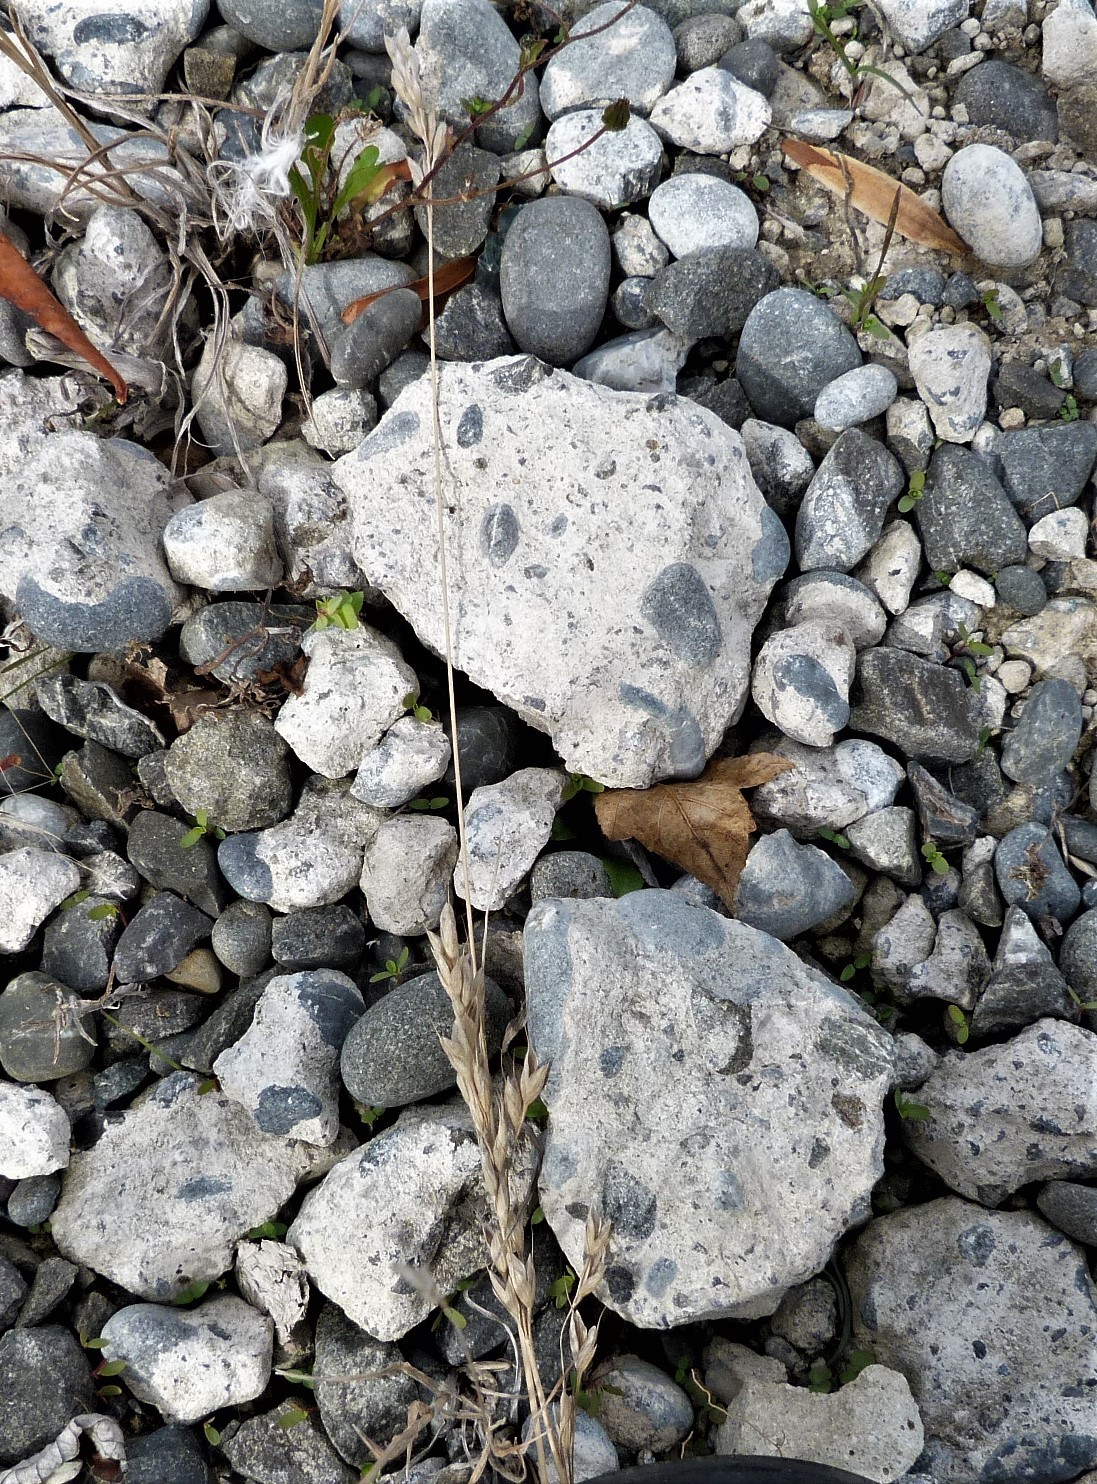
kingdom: Plantae
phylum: Tracheophyta
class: Liliopsida
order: Poales
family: Poaceae
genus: Bromus
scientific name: Bromus hordeaceus
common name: Soft brome
